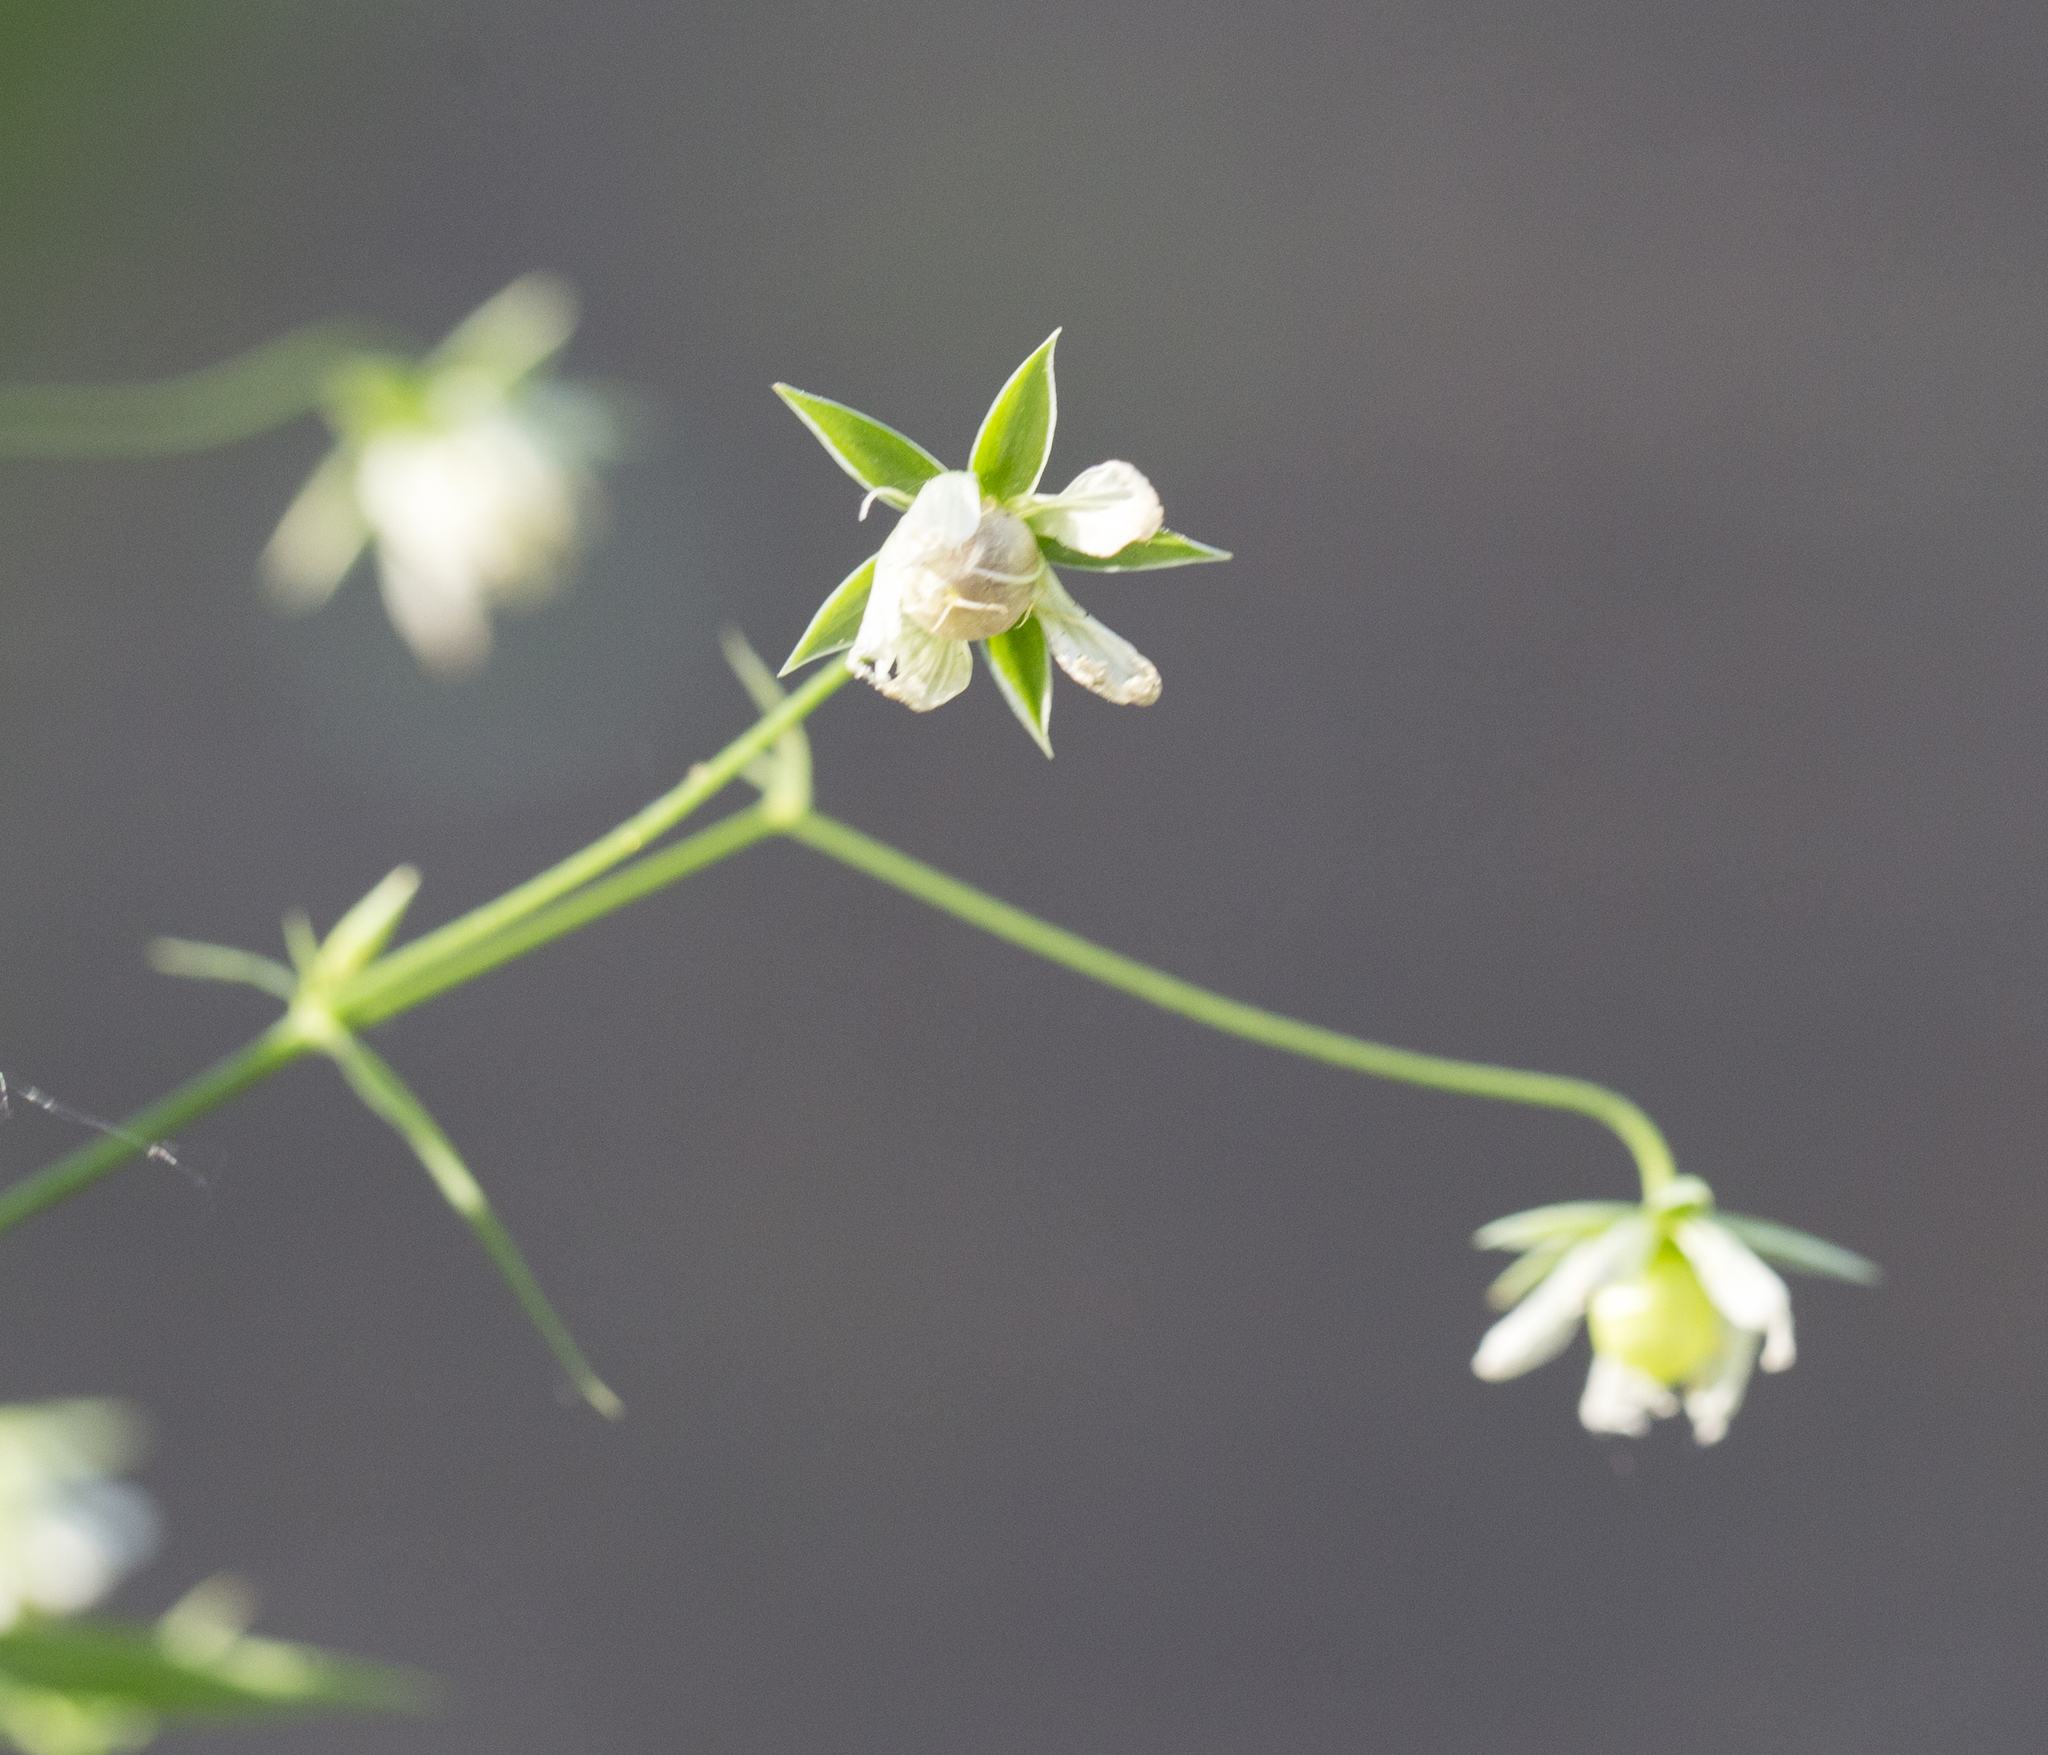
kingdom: Plantae
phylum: Tracheophyta
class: Magnoliopsida
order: Caryophyllales
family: Caryophyllaceae
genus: Rabelera
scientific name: Rabelera holostea
